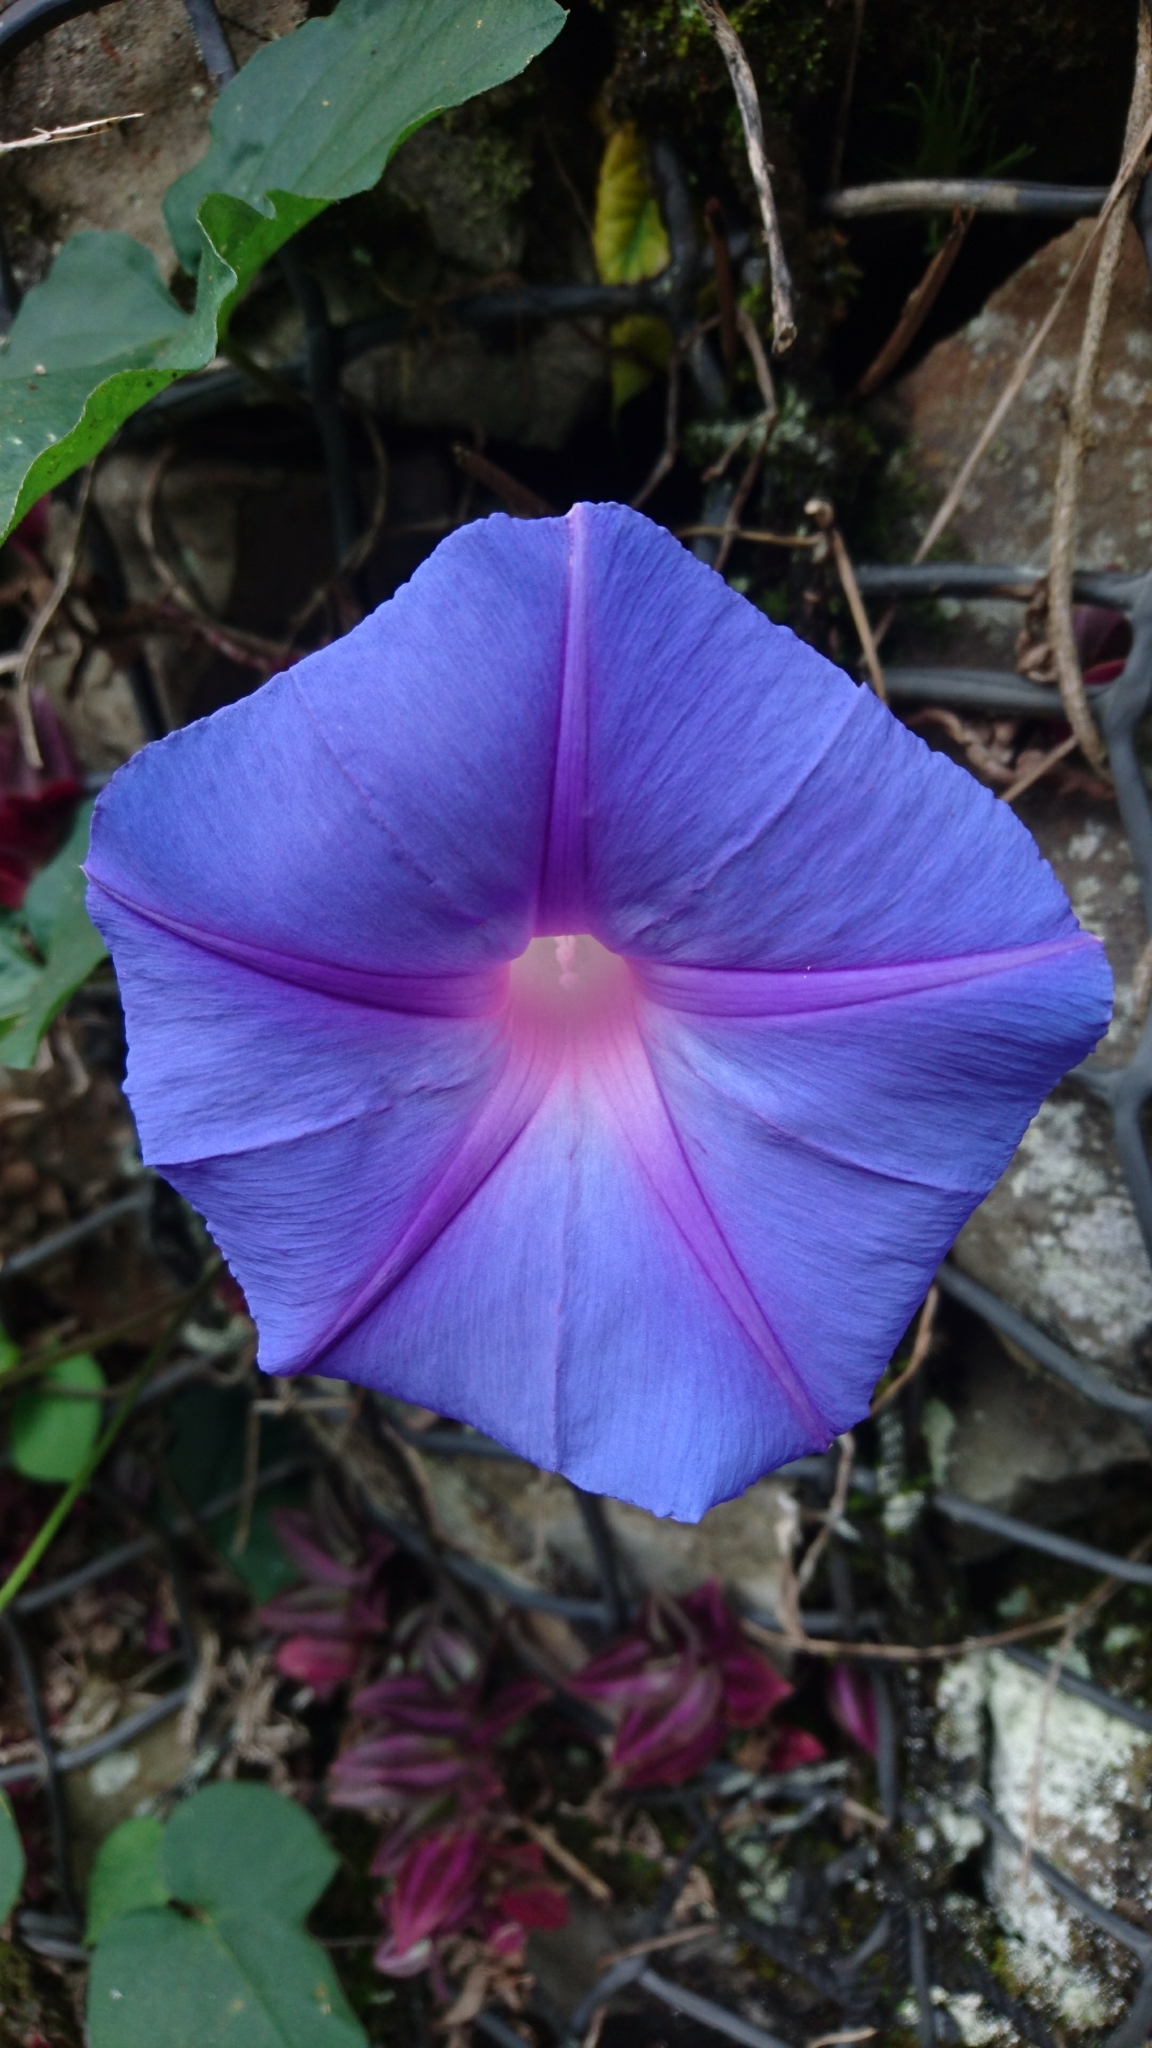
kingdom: Plantae
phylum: Tracheophyta
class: Magnoliopsida
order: Solanales
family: Convolvulaceae
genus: Ipomoea
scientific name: Ipomoea indica
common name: Blue dawnflower
